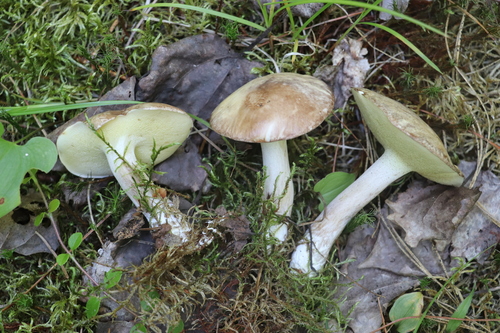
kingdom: Fungi
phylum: Basidiomycota
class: Agaricomycetes
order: Boletales
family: Suillaceae
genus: Suillus
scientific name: Suillus
